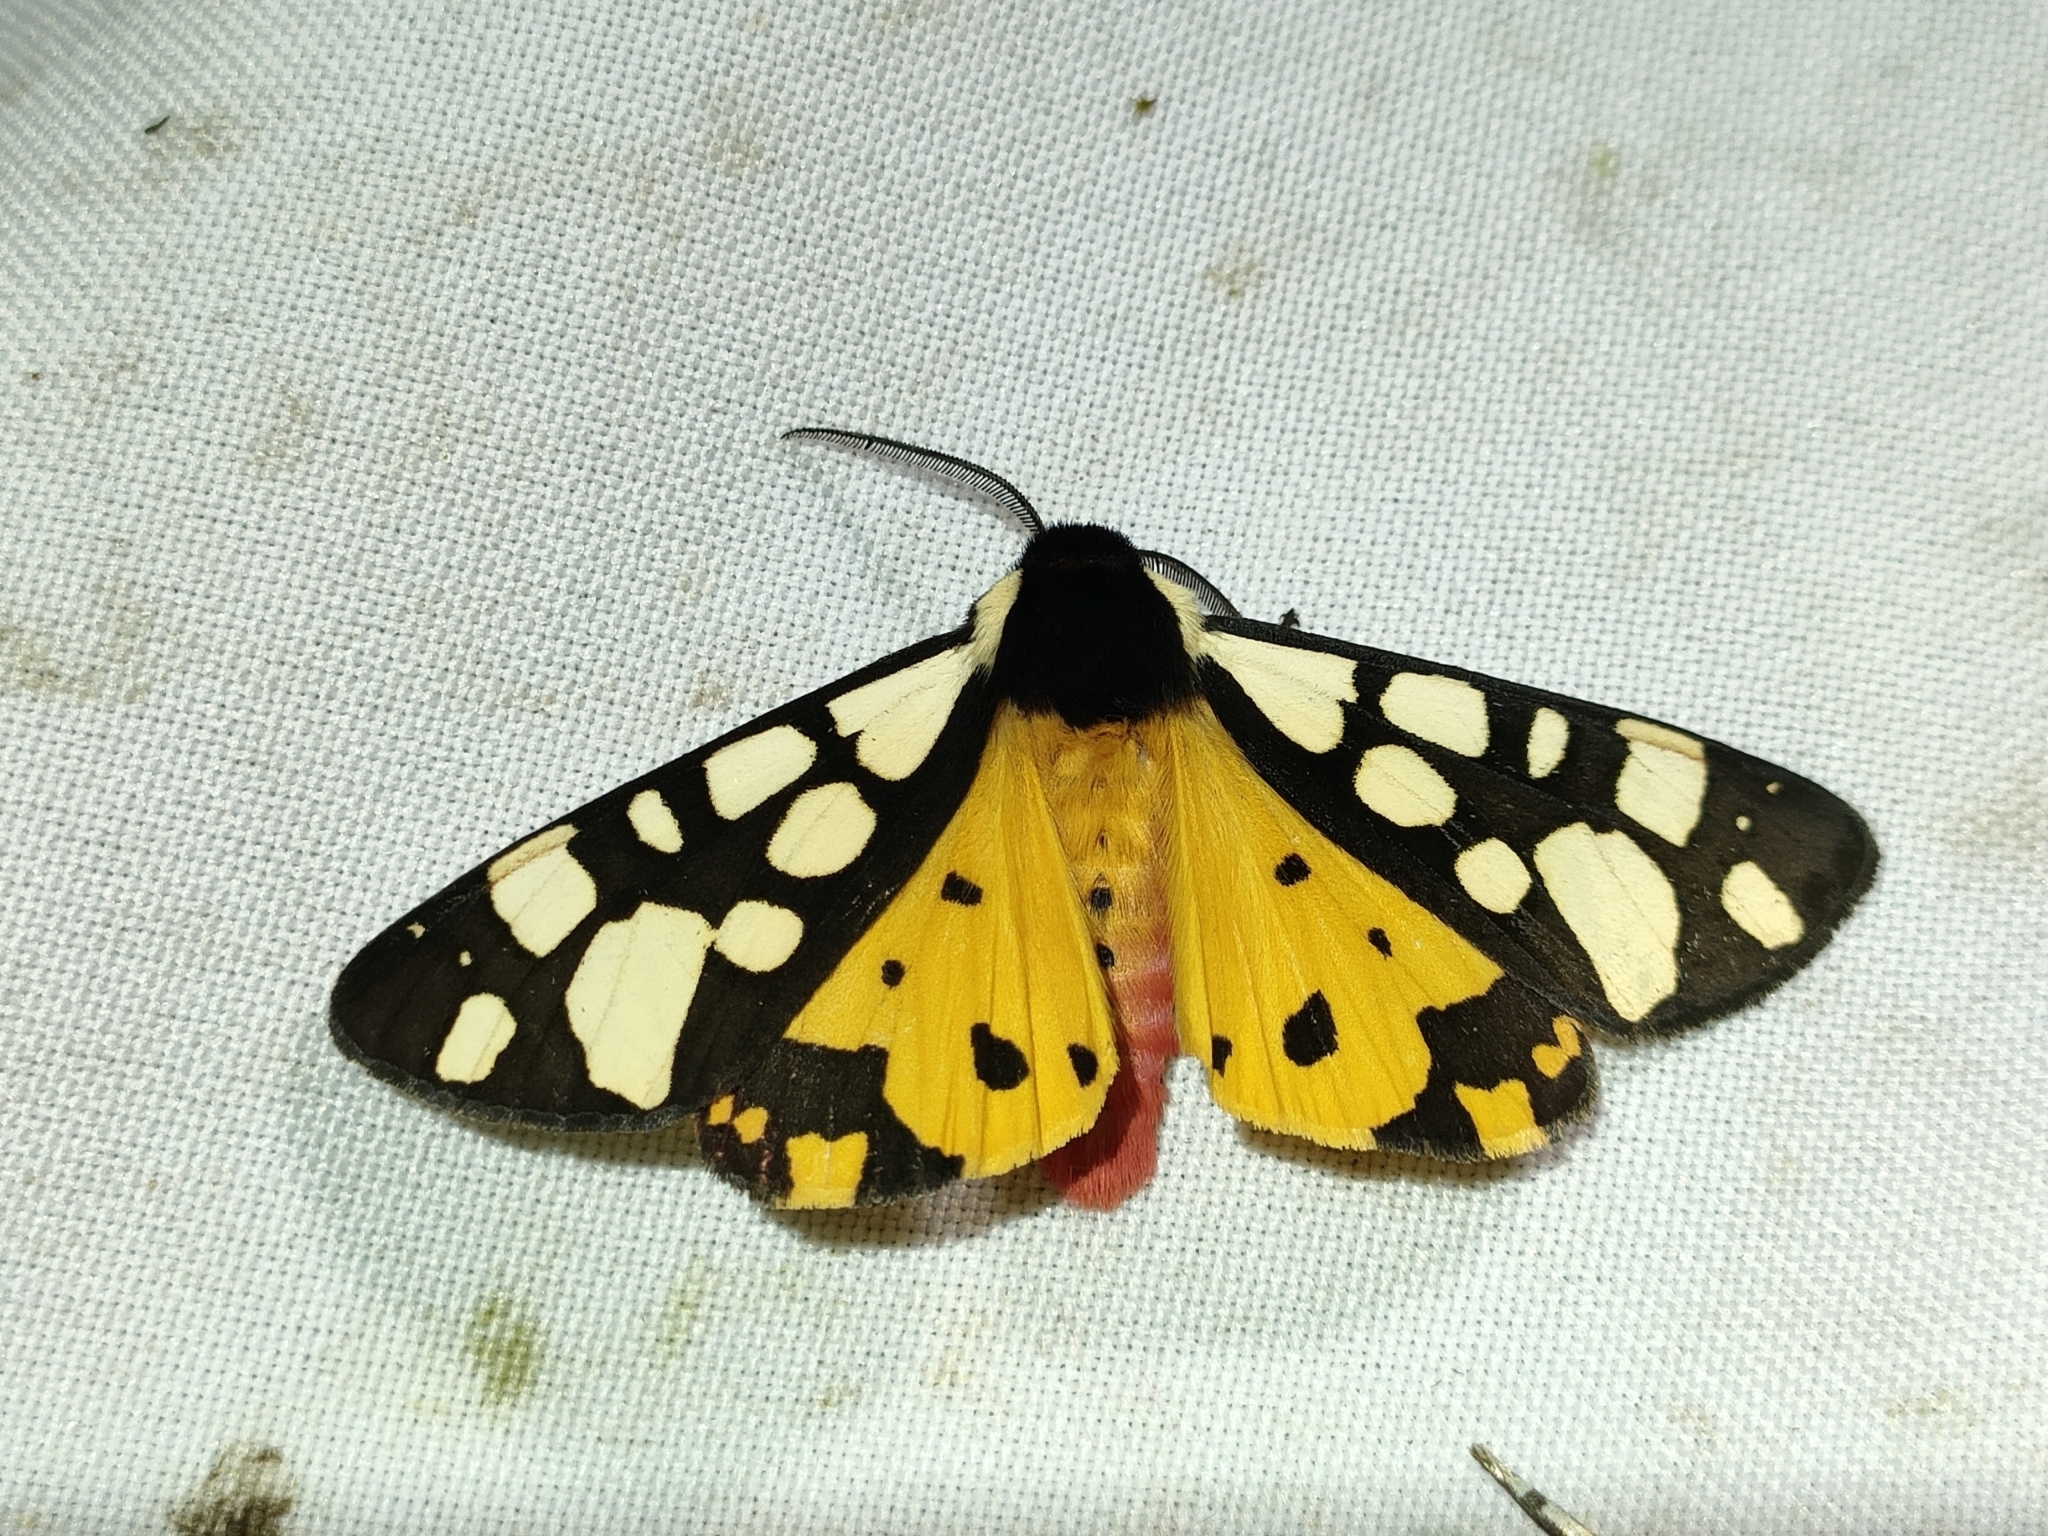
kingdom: Animalia
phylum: Arthropoda
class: Insecta
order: Lepidoptera
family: Erebidae
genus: Epicallia
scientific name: Epicallia villica
